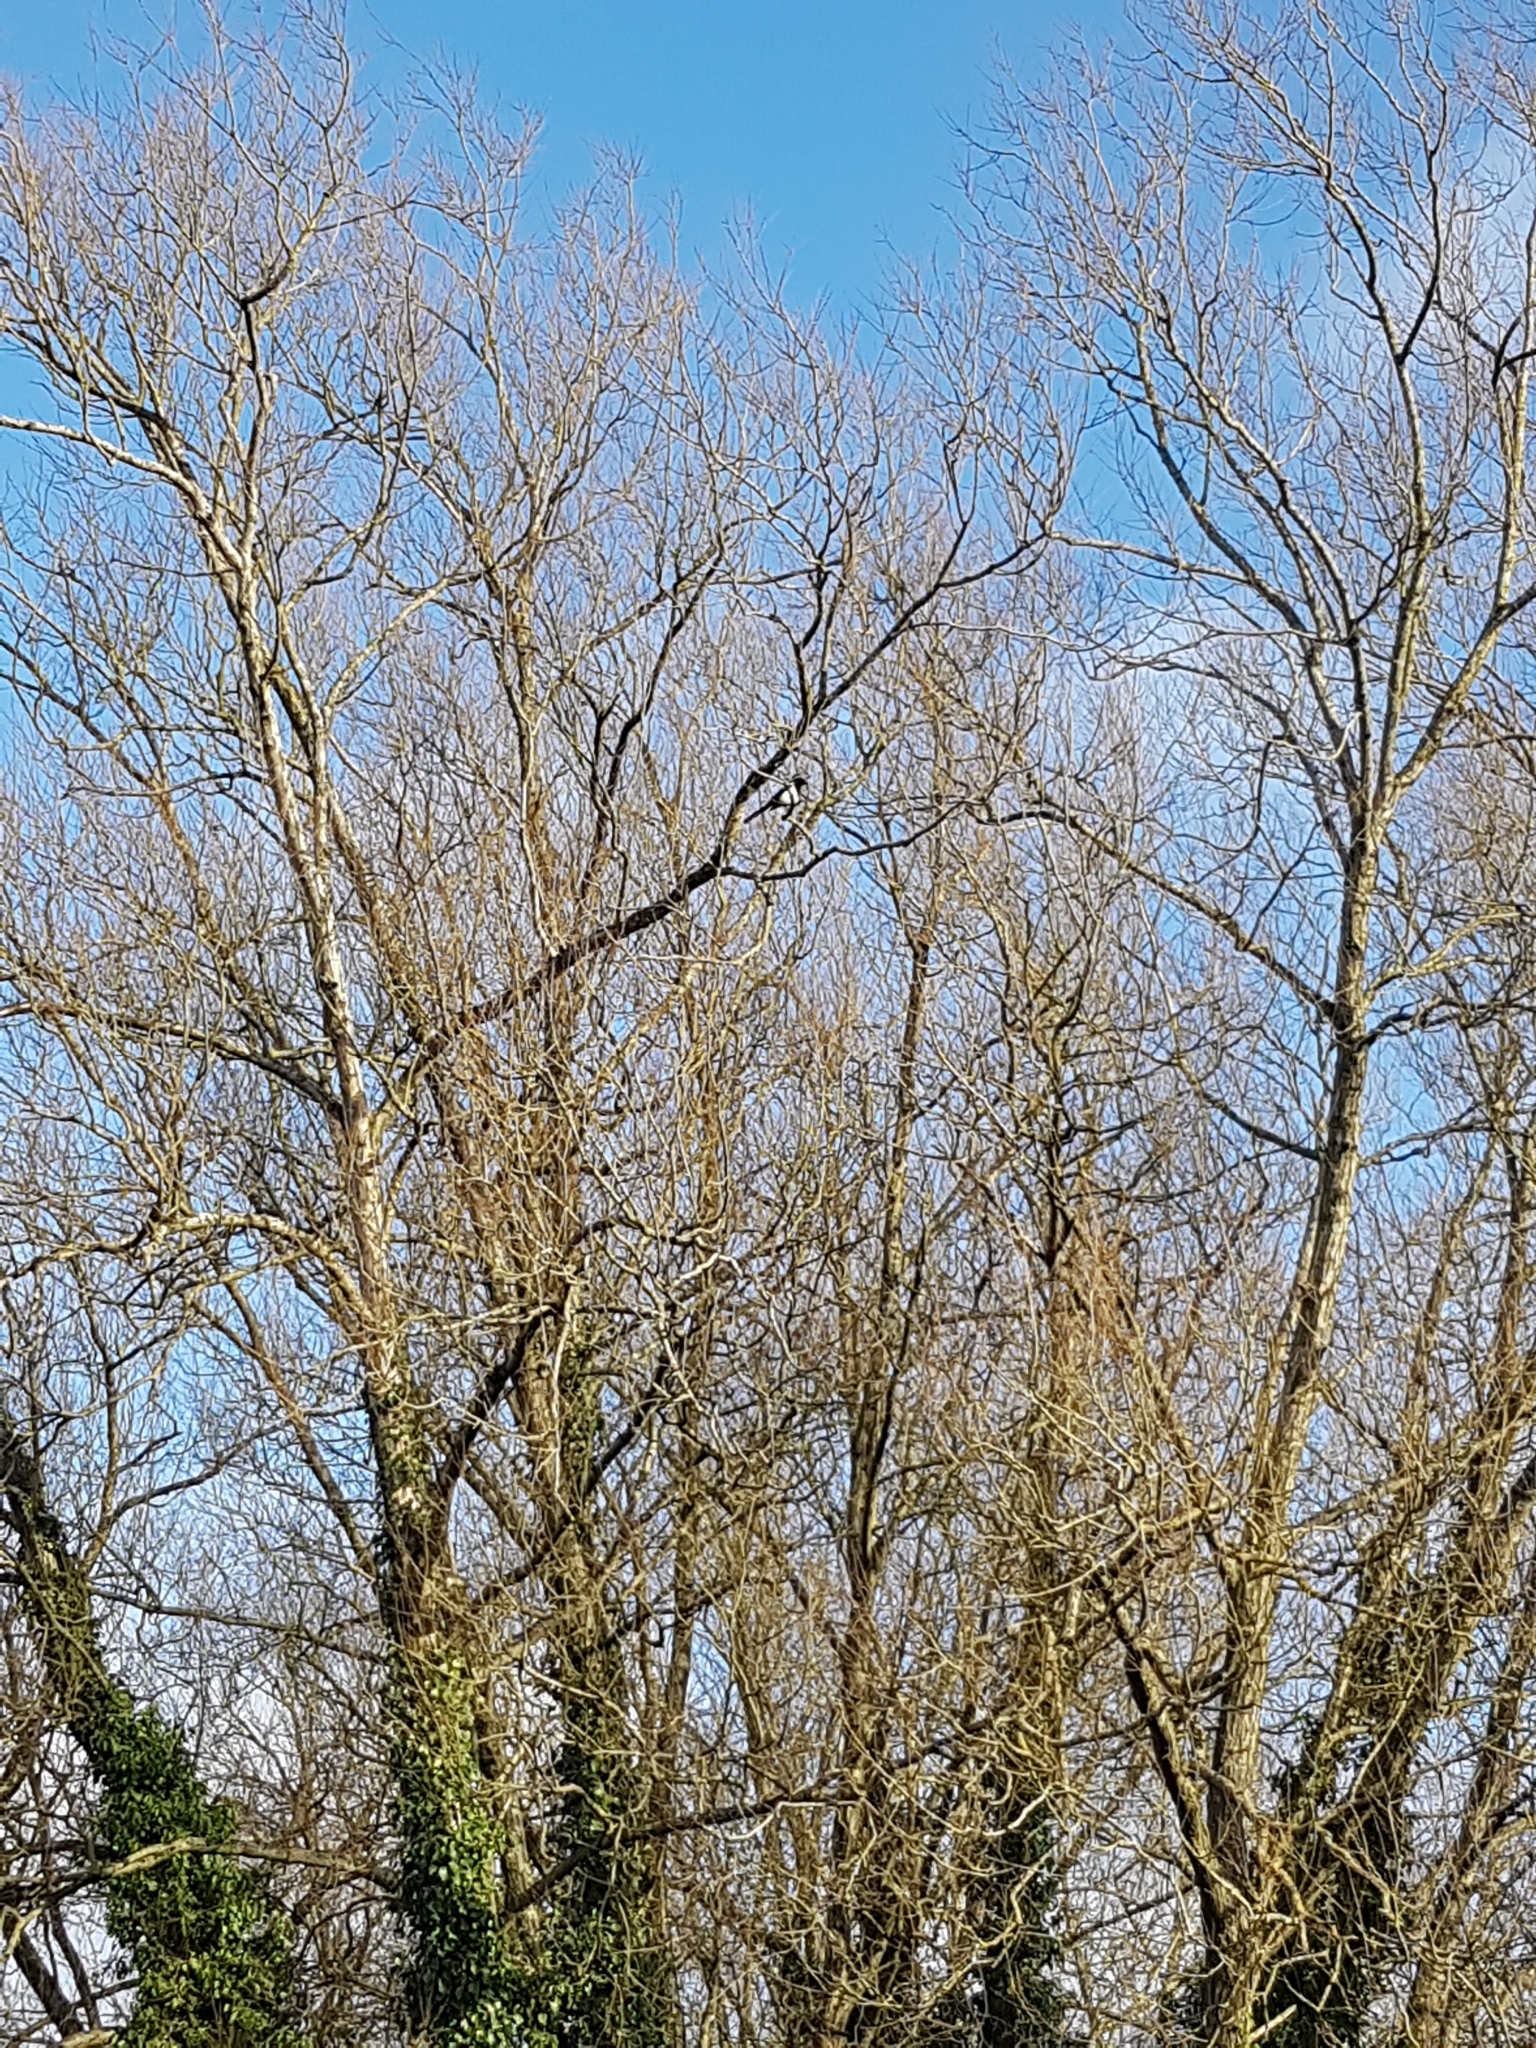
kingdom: Animalia
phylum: Chordata
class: Aves
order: Passeriformes
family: Corvidae
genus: Pica
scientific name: Pica pica
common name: Eurasian magpie
